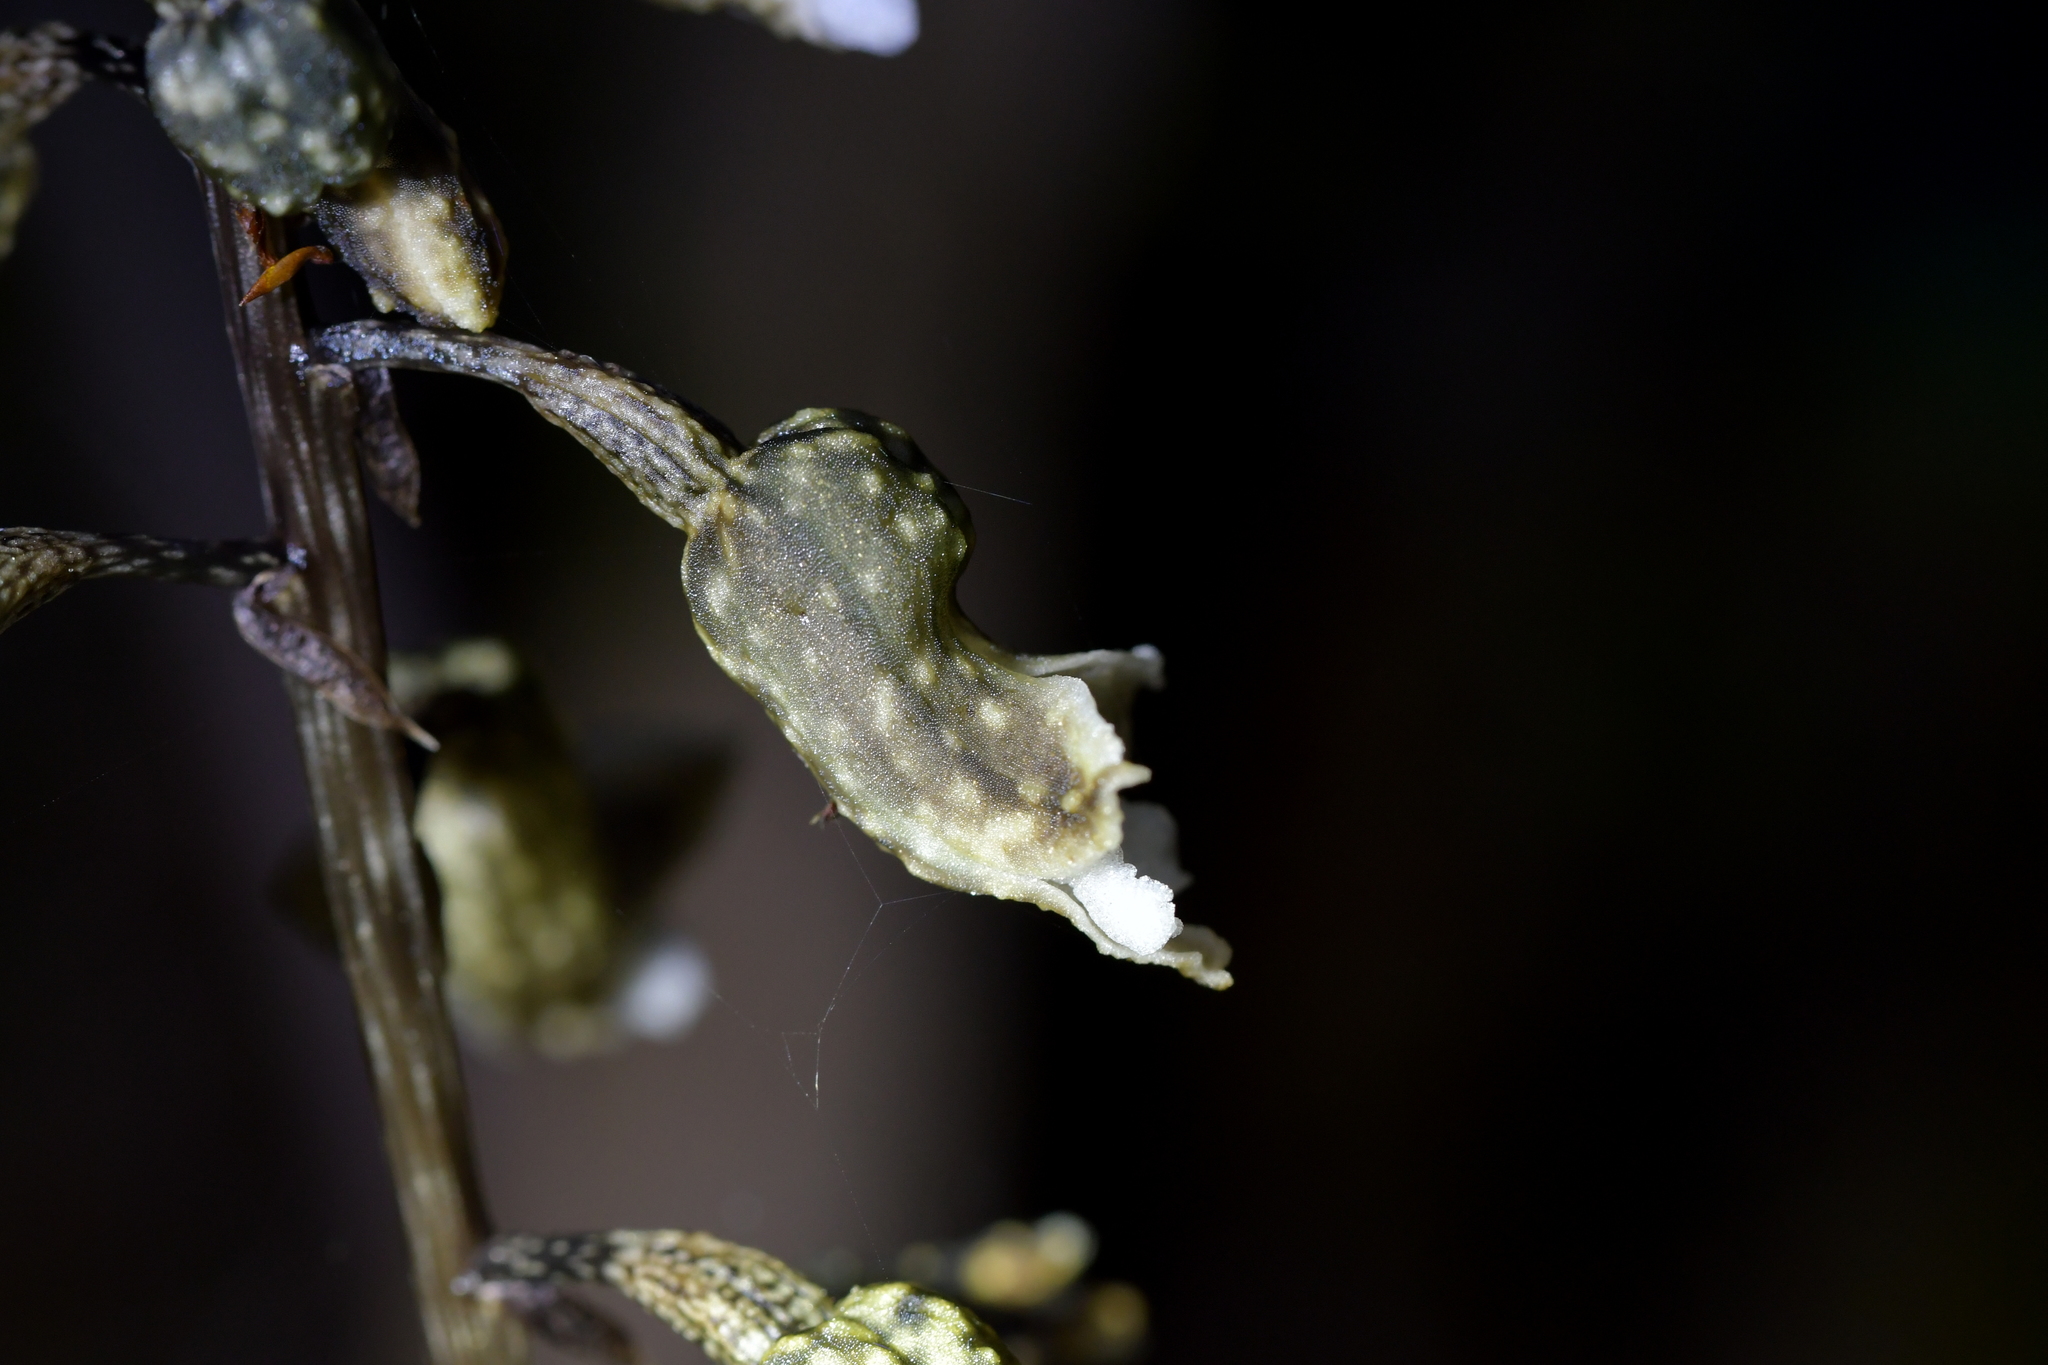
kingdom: Plantae
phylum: Tracheophyta
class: Liliopsida
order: Asparagales
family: Orchidaceae
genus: Gastrodia
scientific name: Gastrodia cunninghamii
